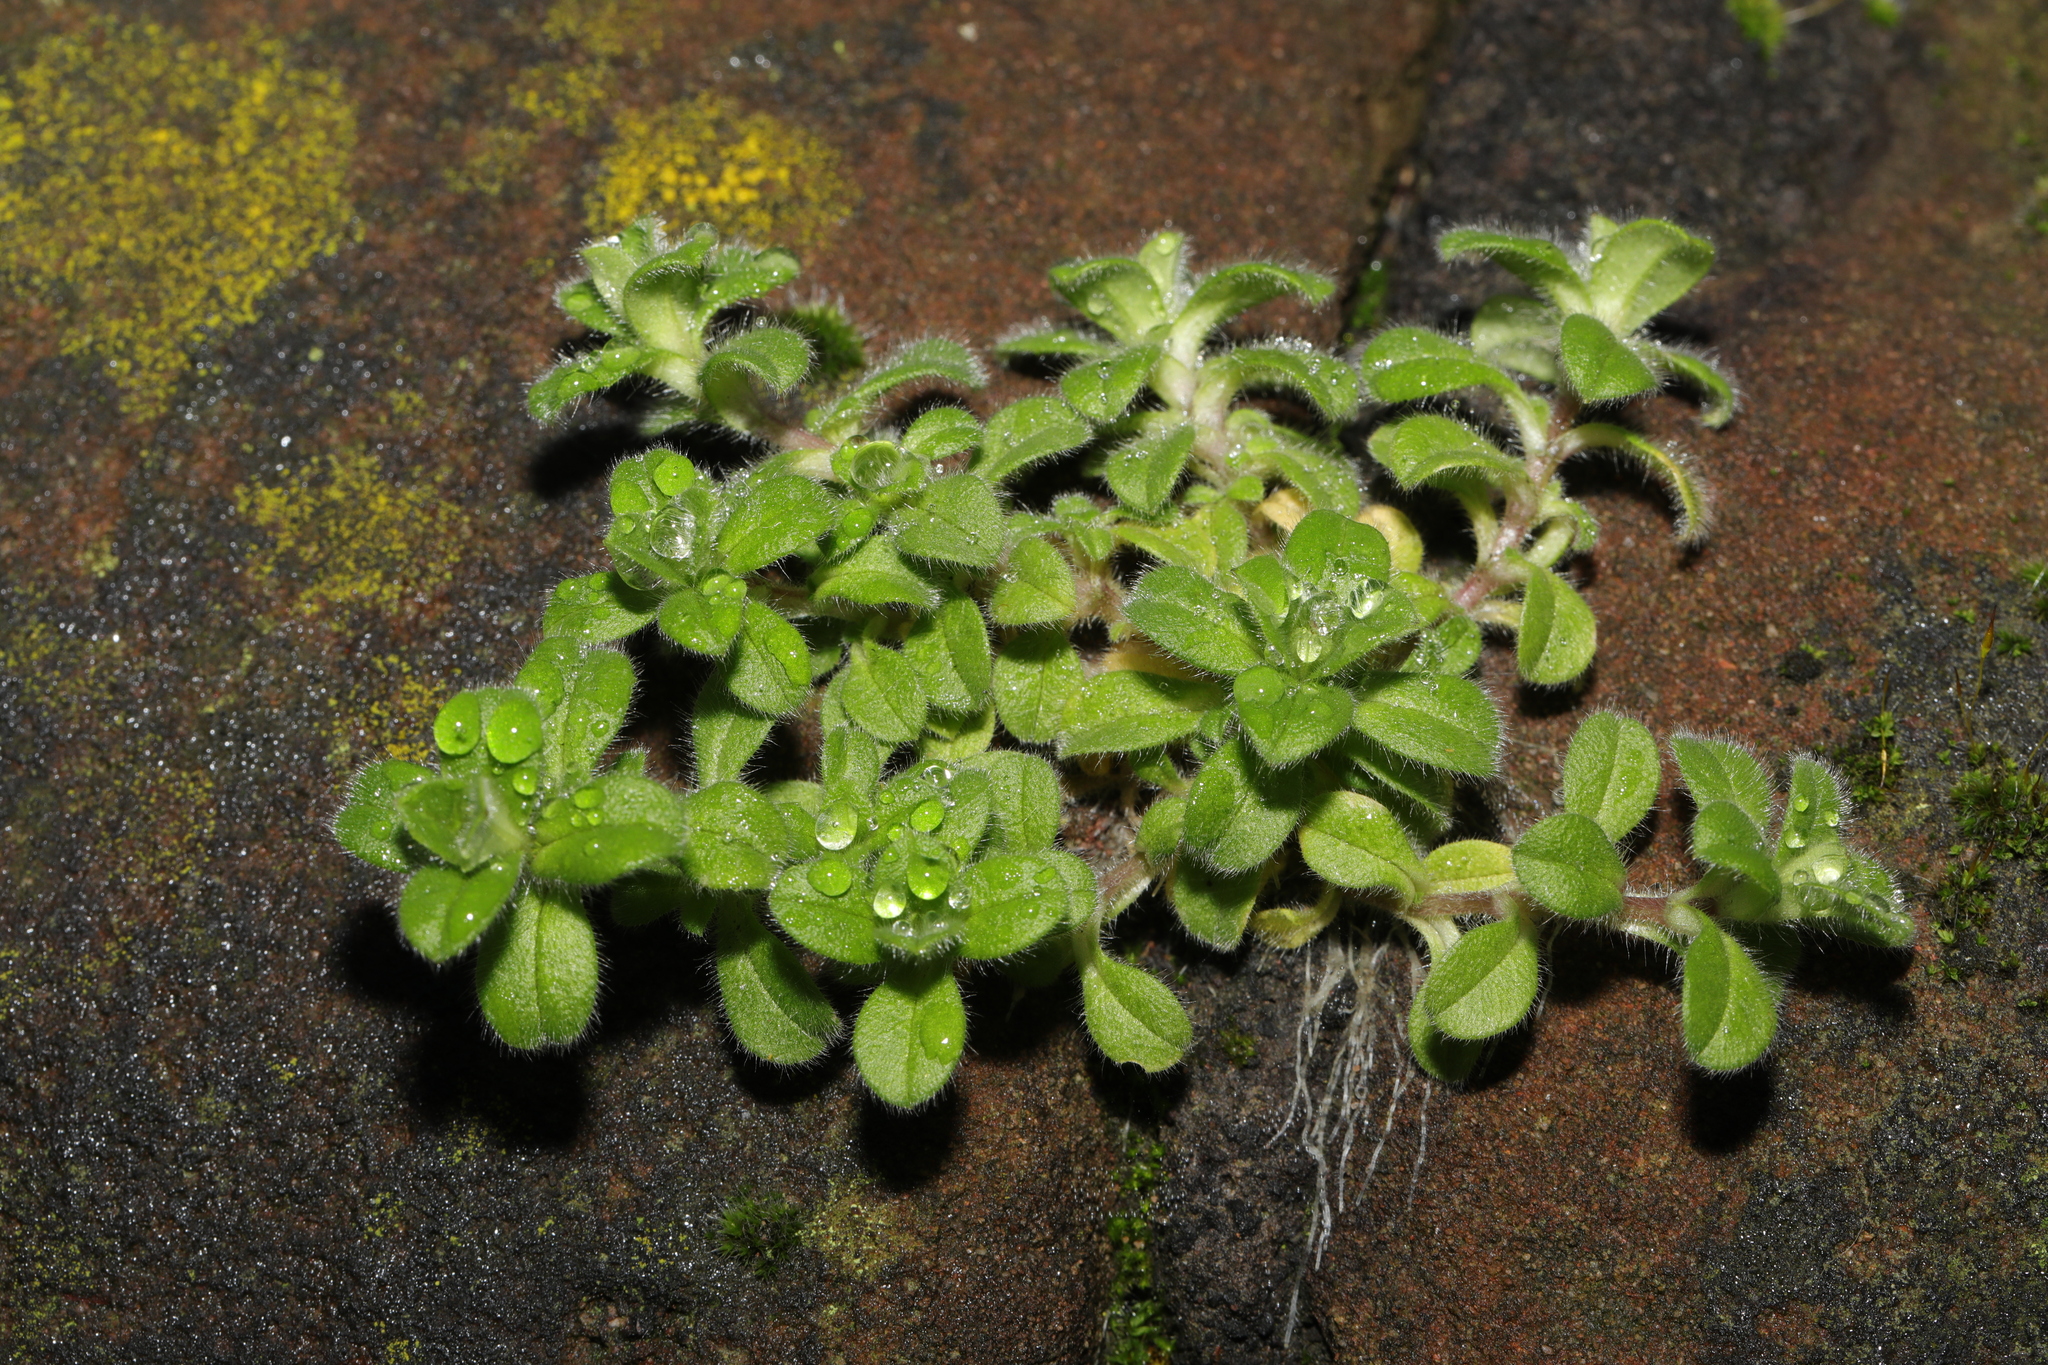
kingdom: Plantae
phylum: Tracheophyta
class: Magnoliopsida
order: Caryophyllales
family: Caryophyllaceae
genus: Cerastium
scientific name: Cerastium glomeratum
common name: Sticky chickweed
